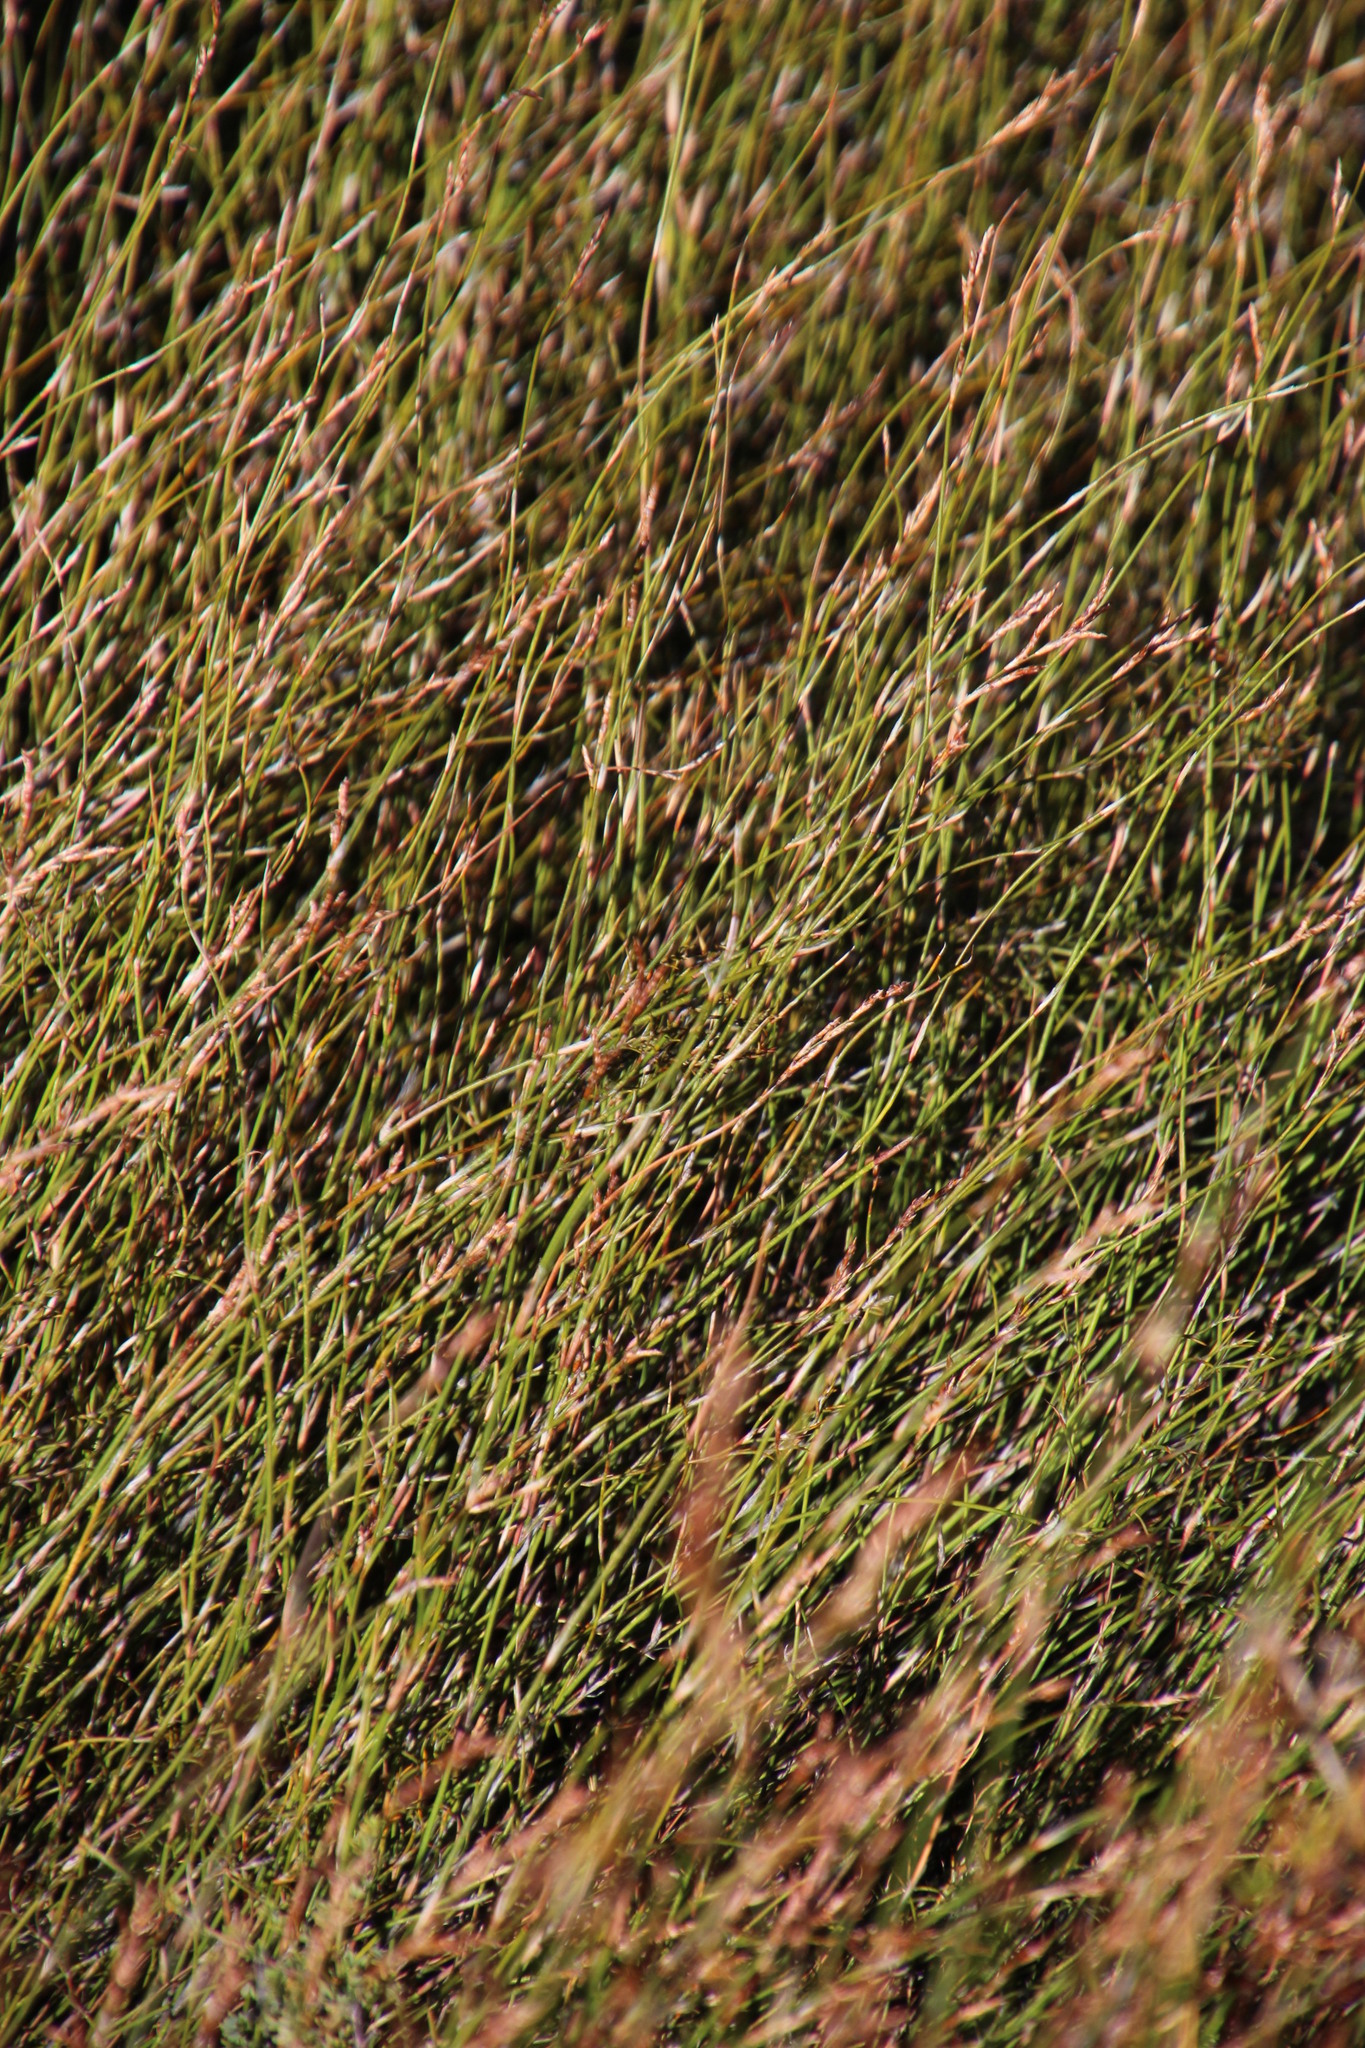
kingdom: Plantae
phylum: Tracheophyta
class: Liliopsida
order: Poales
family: Restionaceae
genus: Restio
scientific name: Restio macer
